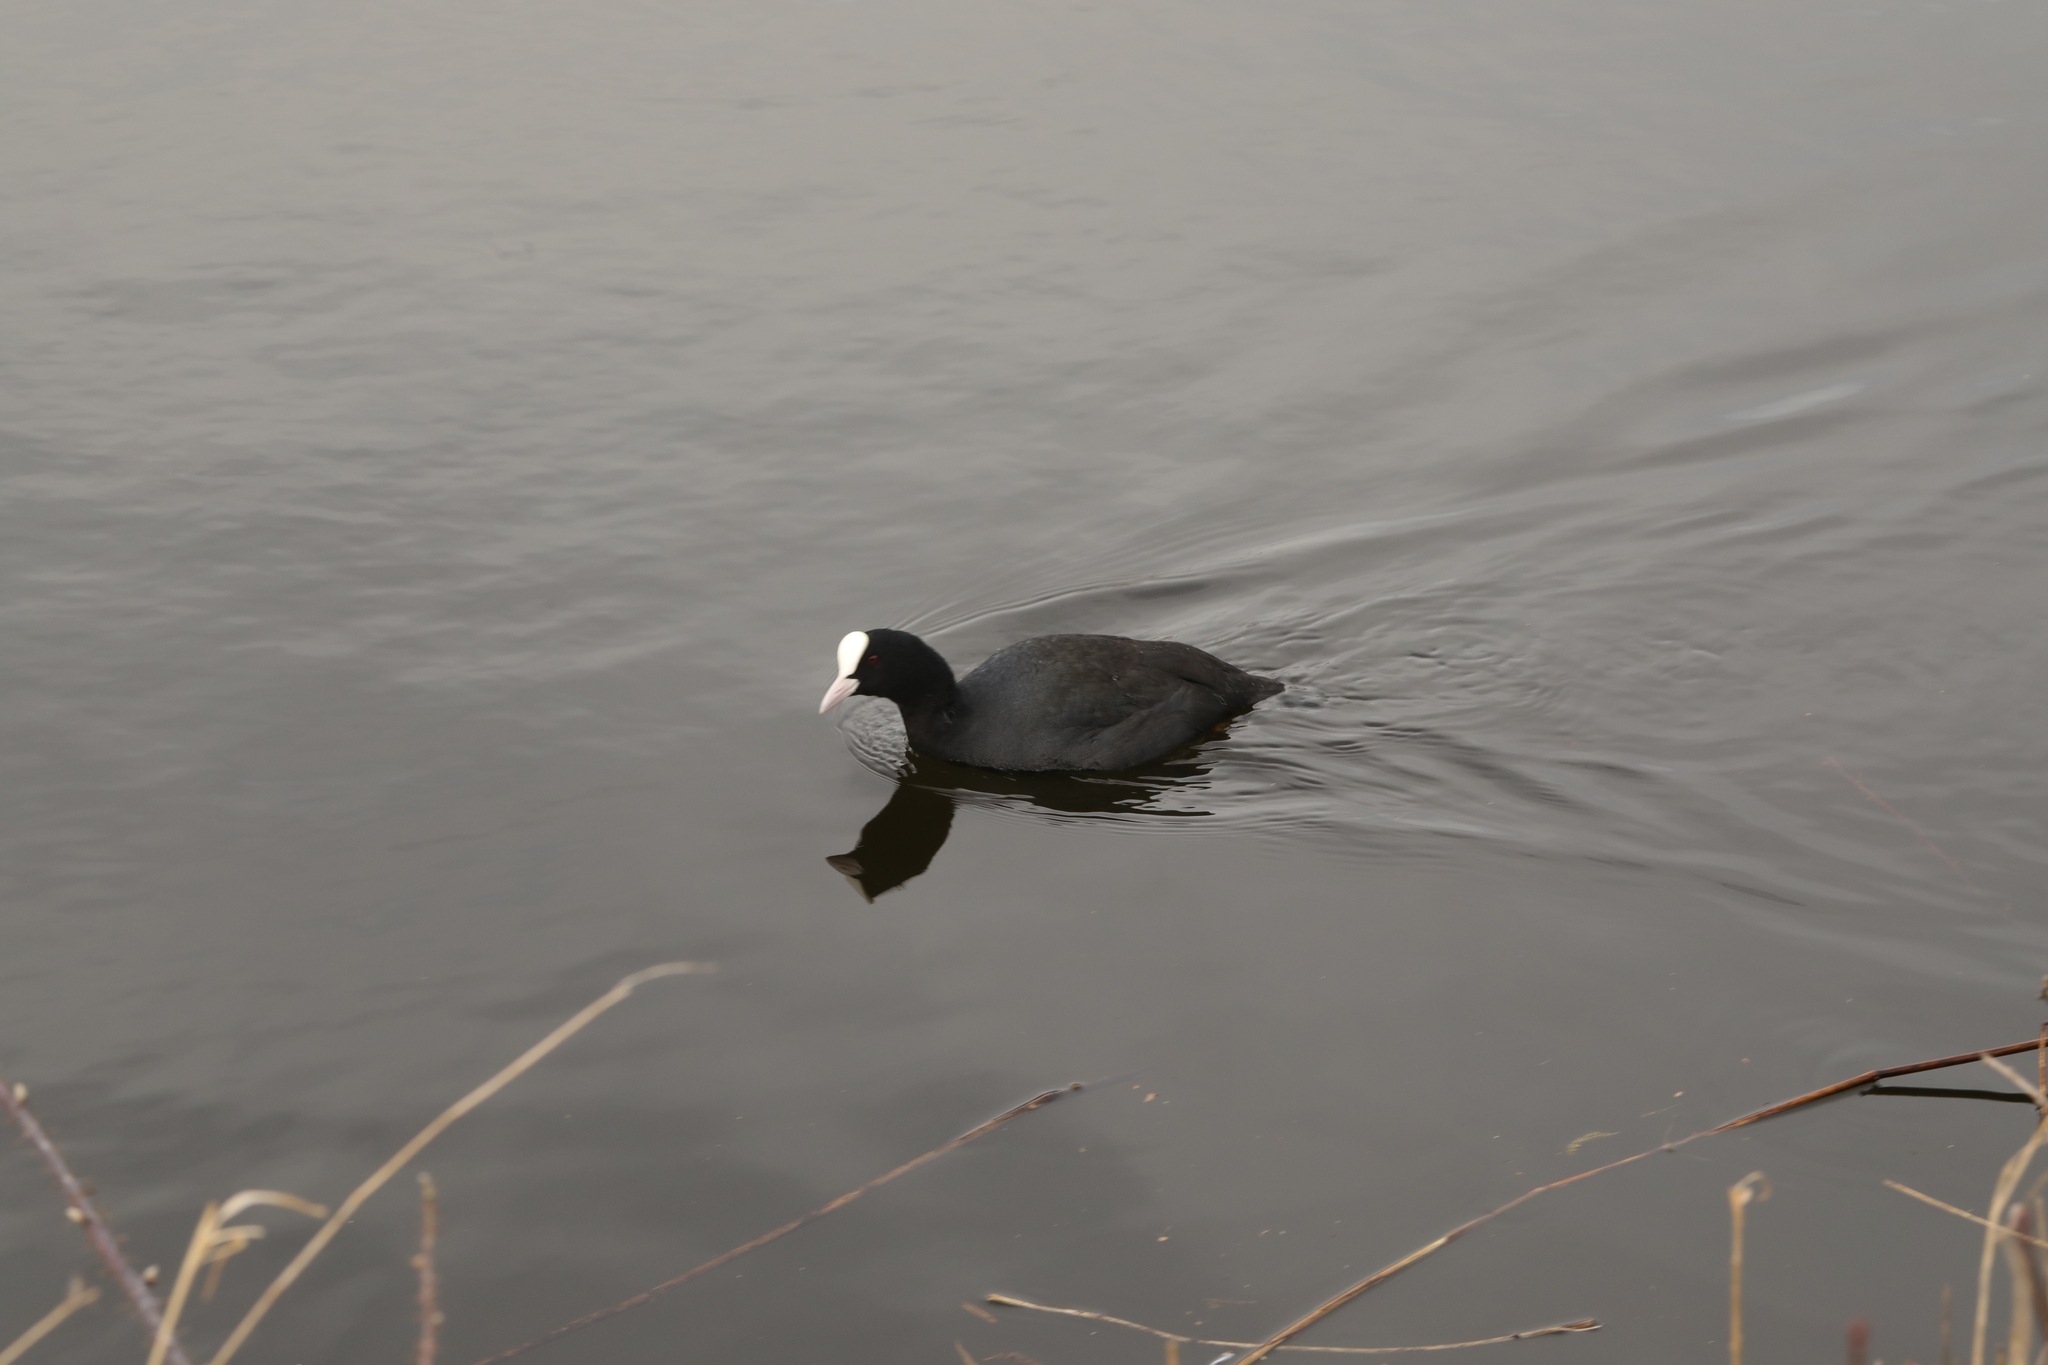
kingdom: Animalia
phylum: Chordata
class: Aves
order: Gruiformes
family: Rallidae
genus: Fulica
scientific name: Fulica atra
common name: Eurasian coot
